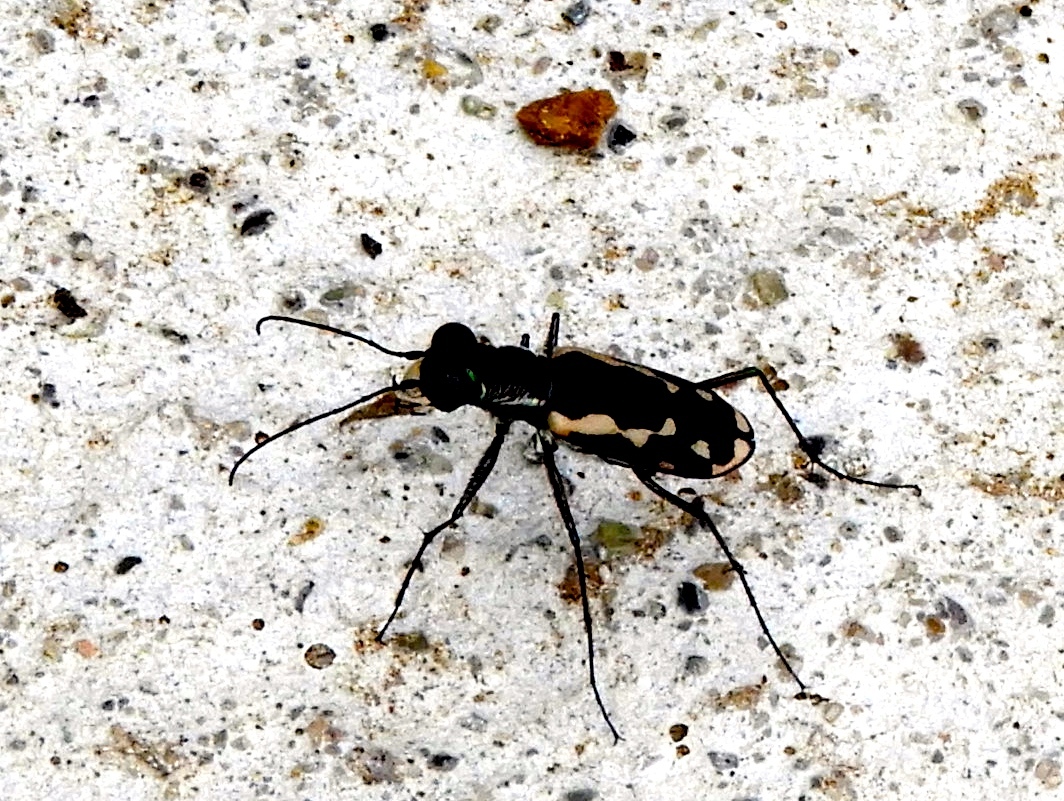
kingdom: Animalia
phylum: Arthropoda
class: Insecta
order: Coleoptera
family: Carabidae
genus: Cicindela
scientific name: Cicindela hydrophoba
